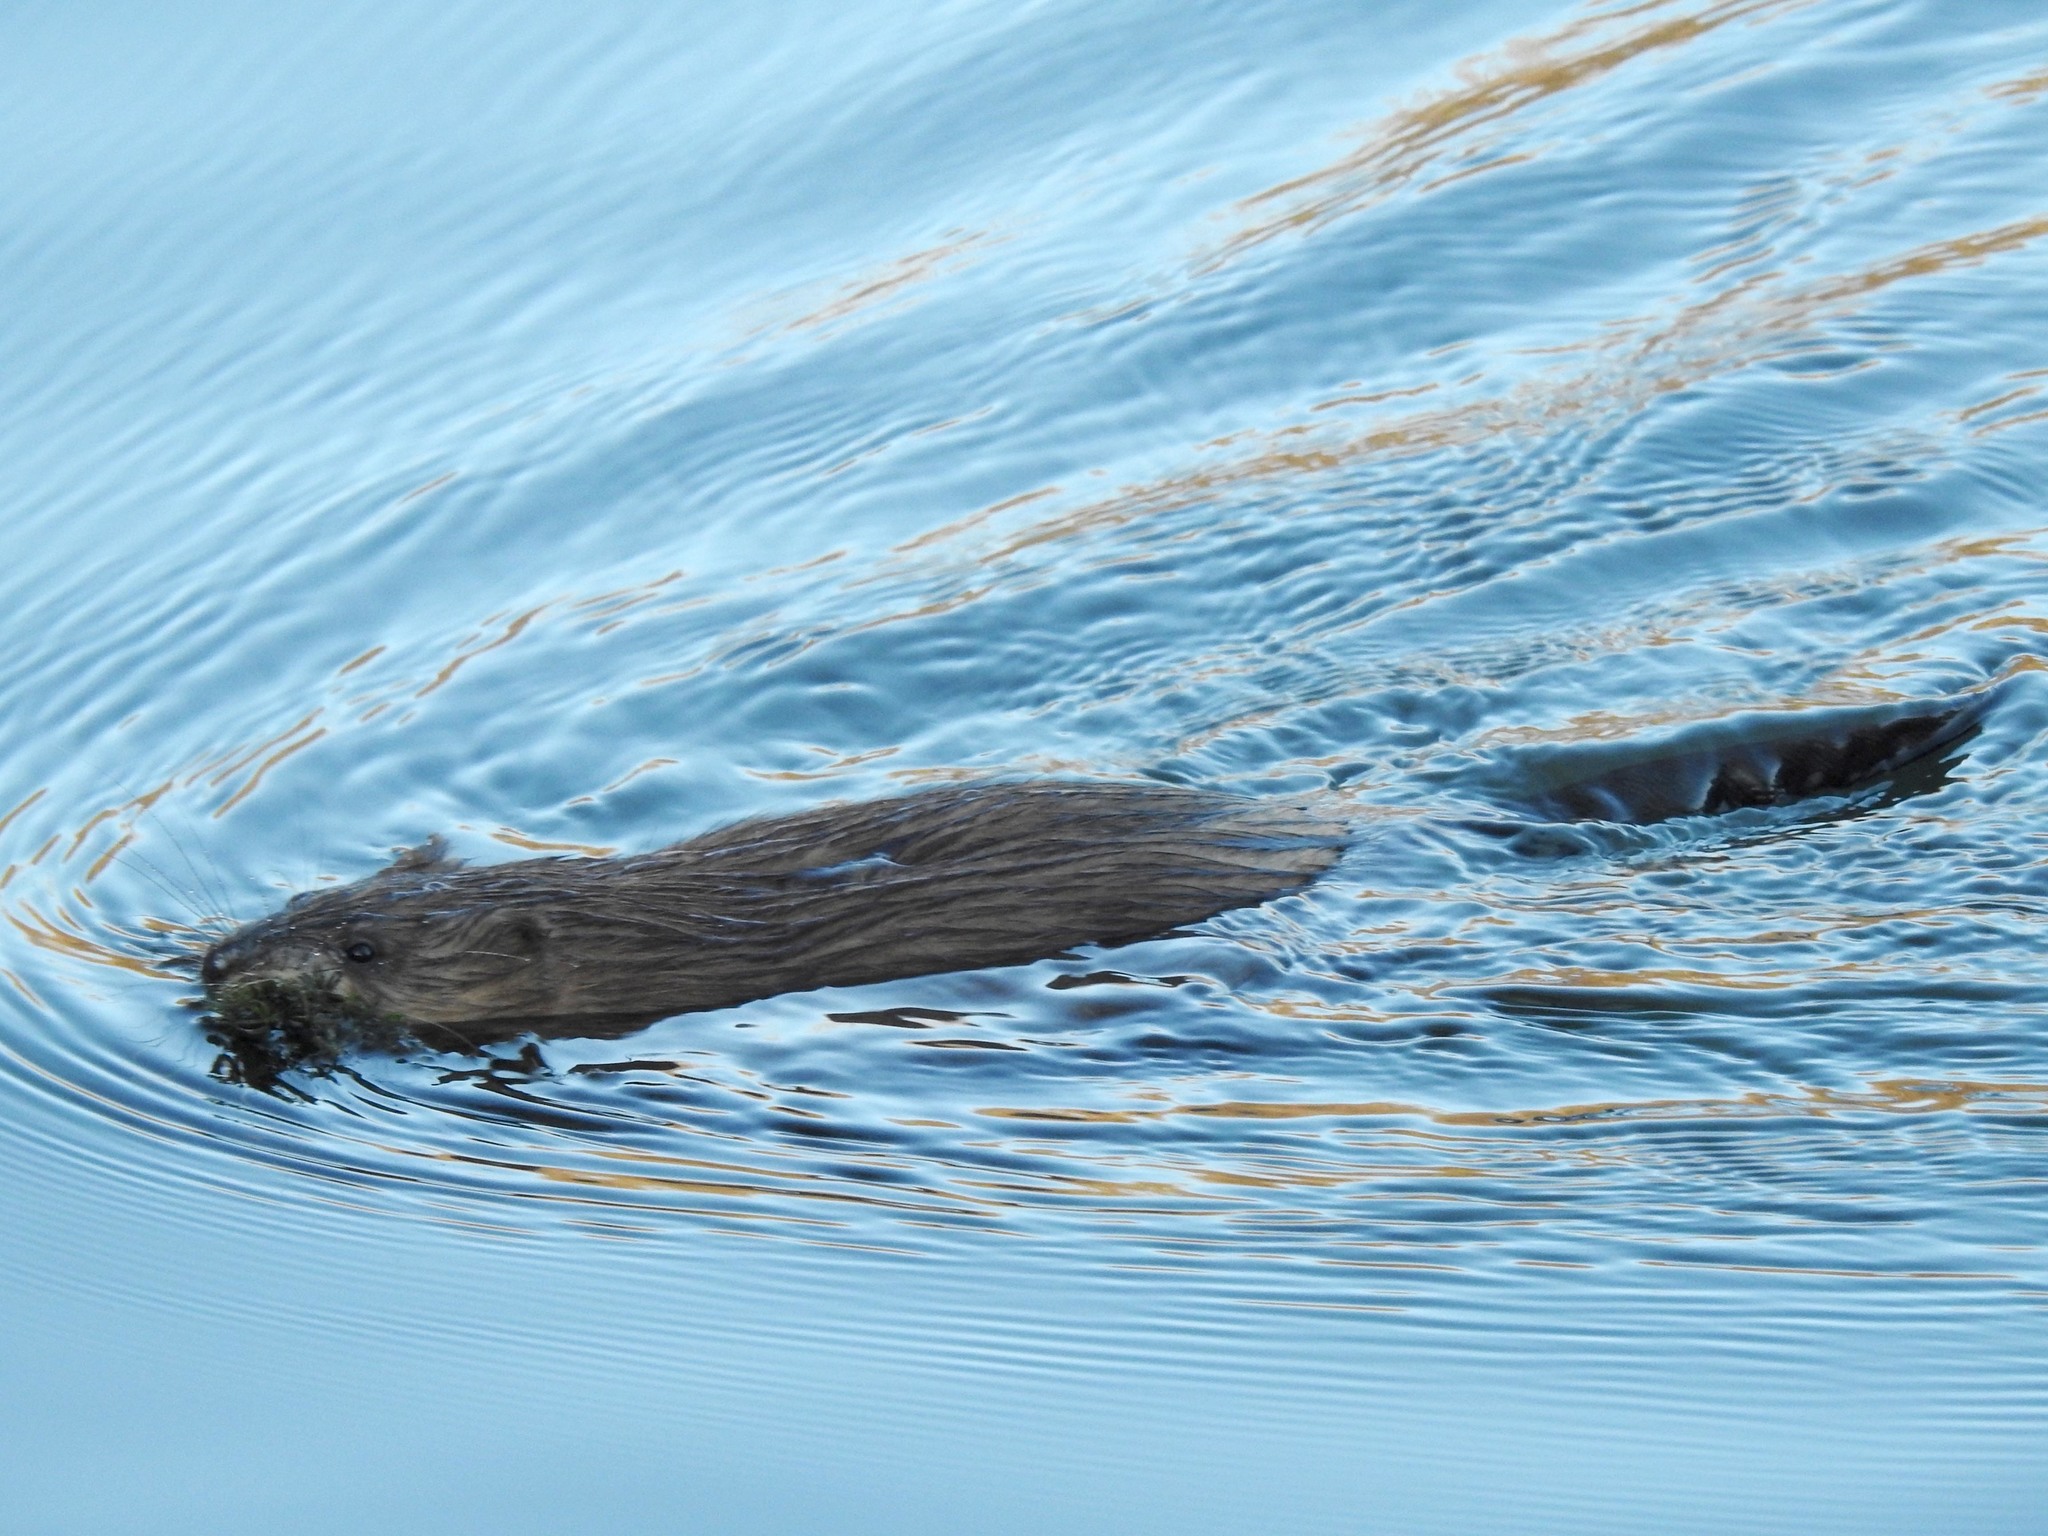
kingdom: Animalia
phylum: Chordata
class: Mammalia
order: Rodentia
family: Cricetidae
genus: Ondatra
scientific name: Ondatra zibethicus
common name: Muskrat
